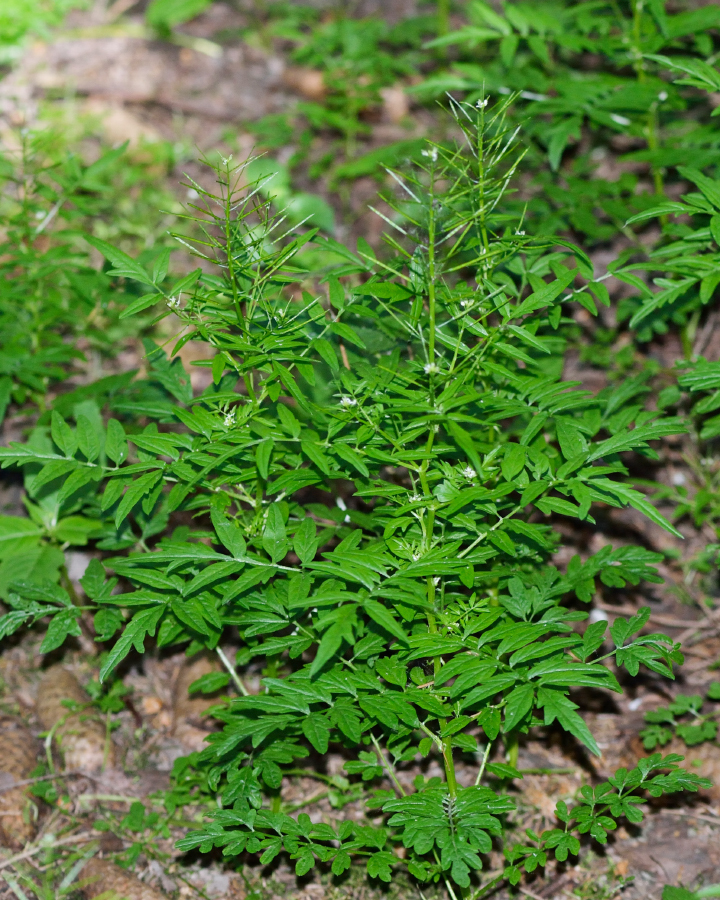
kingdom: Plantae
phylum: Tracheophyta
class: Magnoliopsida
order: Brassicales
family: Brassicaceae
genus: Cardamine
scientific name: Cardamine impatiens
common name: Narrow-leaved bitter-cress
